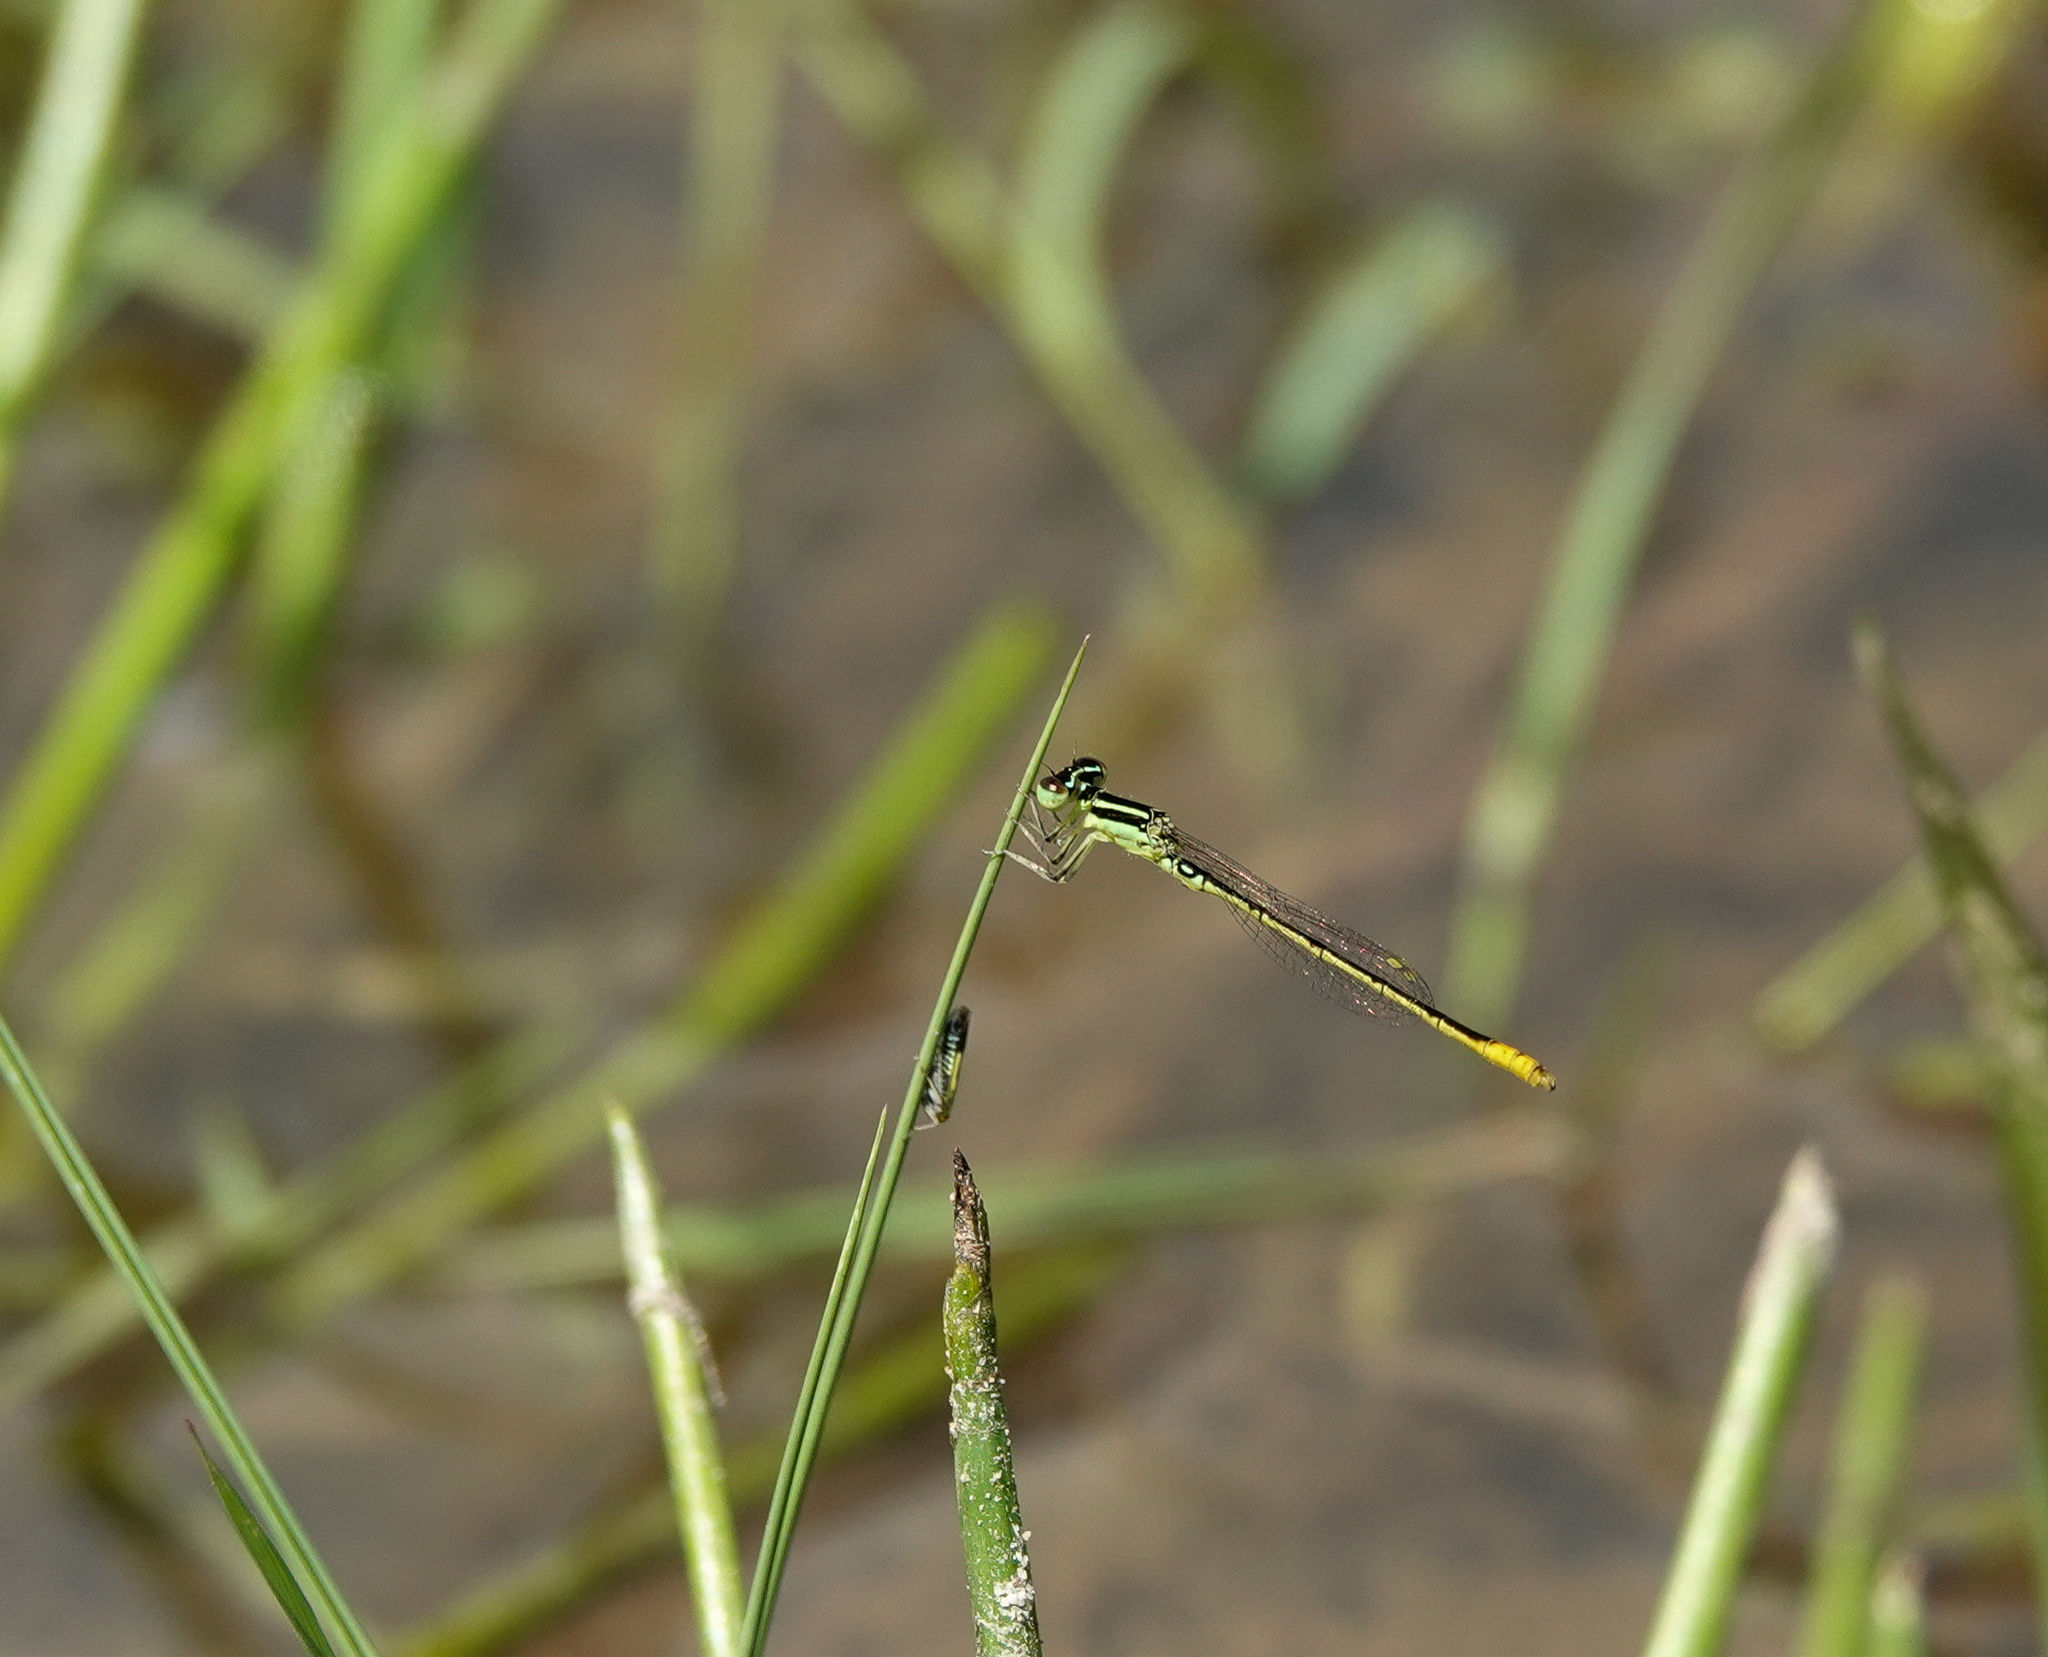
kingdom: Animalia
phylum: Arthropoda
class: Insecta
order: Odonata
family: Coenagrionidae
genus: Agriocnemis
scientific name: Agriocnemis kalinga
